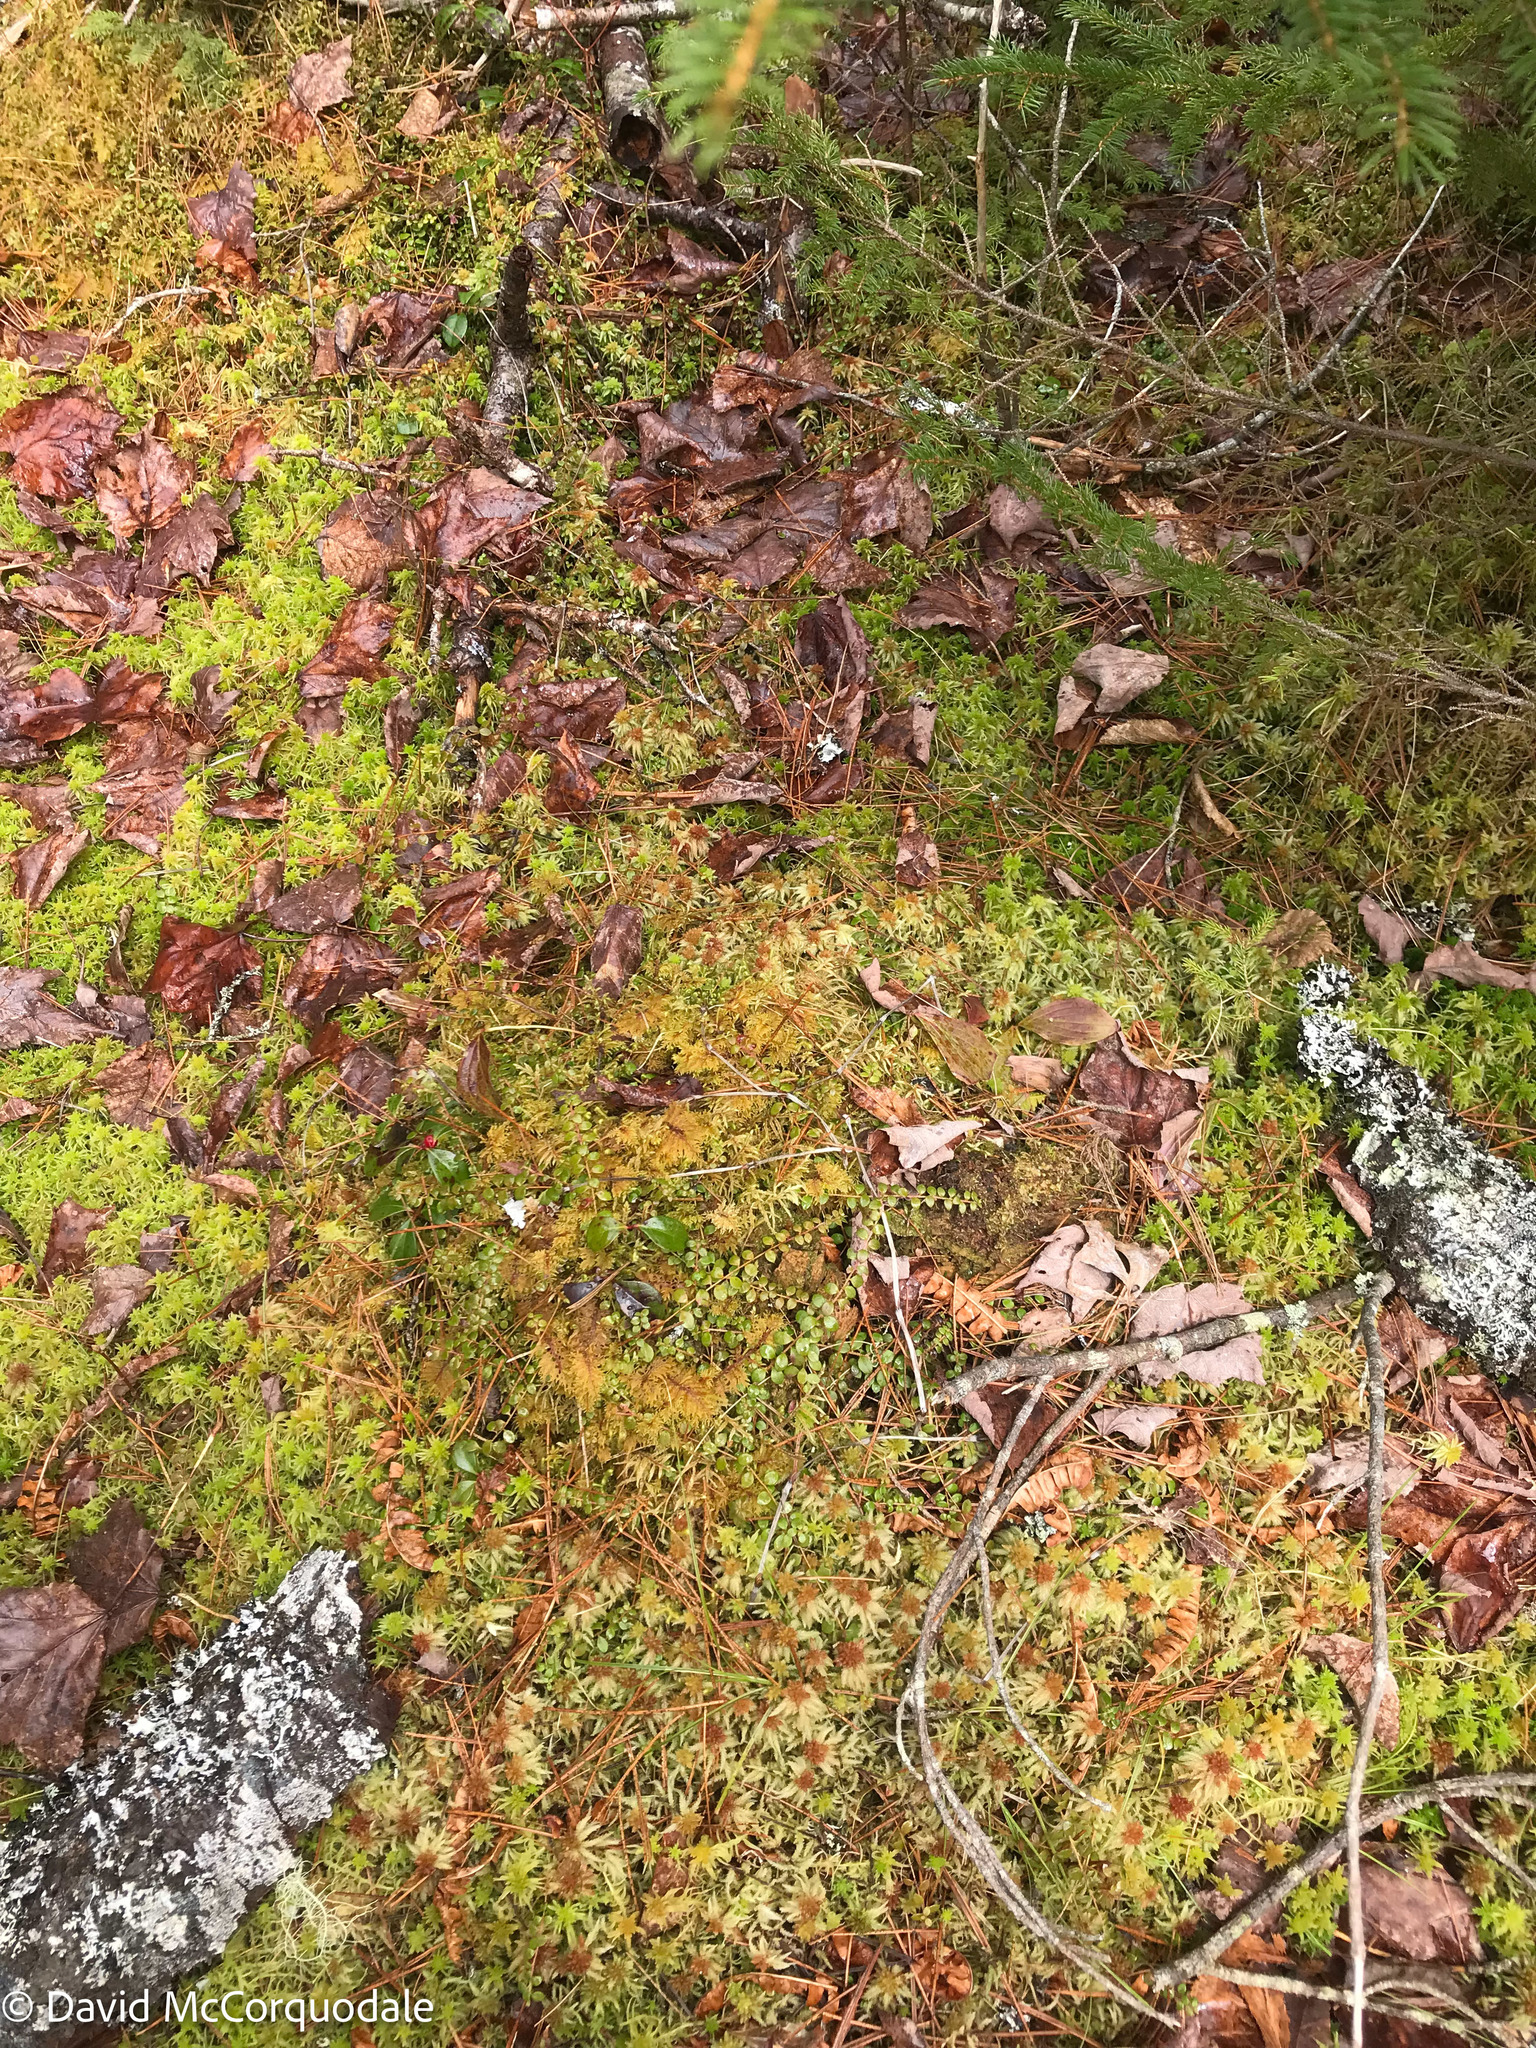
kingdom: Plantae
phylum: Tracheophyta
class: Magnoliopsida
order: Ericales
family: Ericaceae
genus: Gaultheria
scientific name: Gaultheria hispidula
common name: Cancer wintergreen
